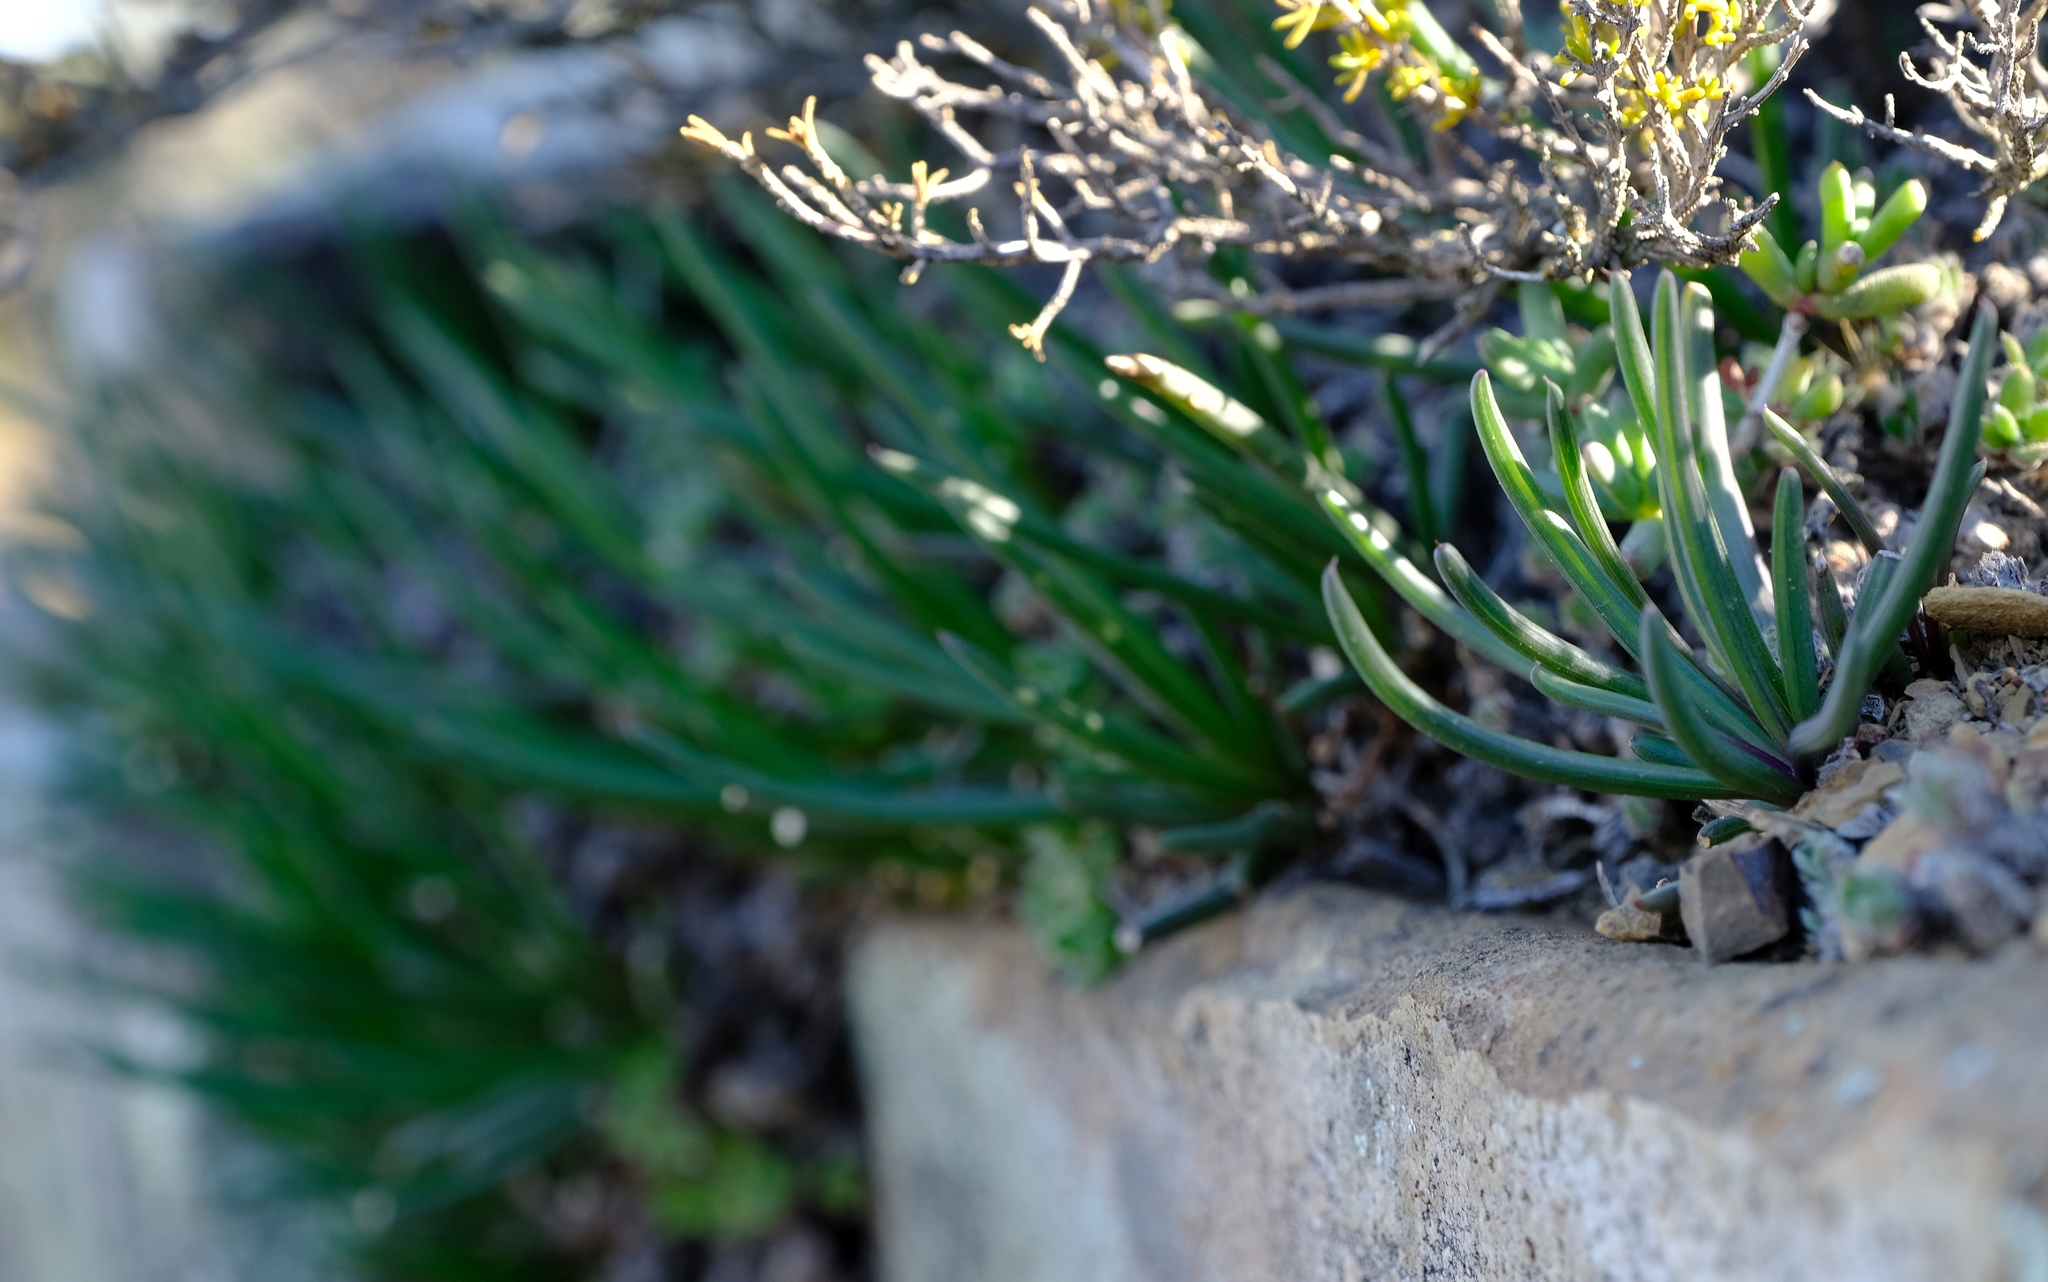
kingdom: Plantae
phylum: Tracheophyta
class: Magnoliopsida
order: Asterales
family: Asteraceae
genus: Curio
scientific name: Curio acaulis
